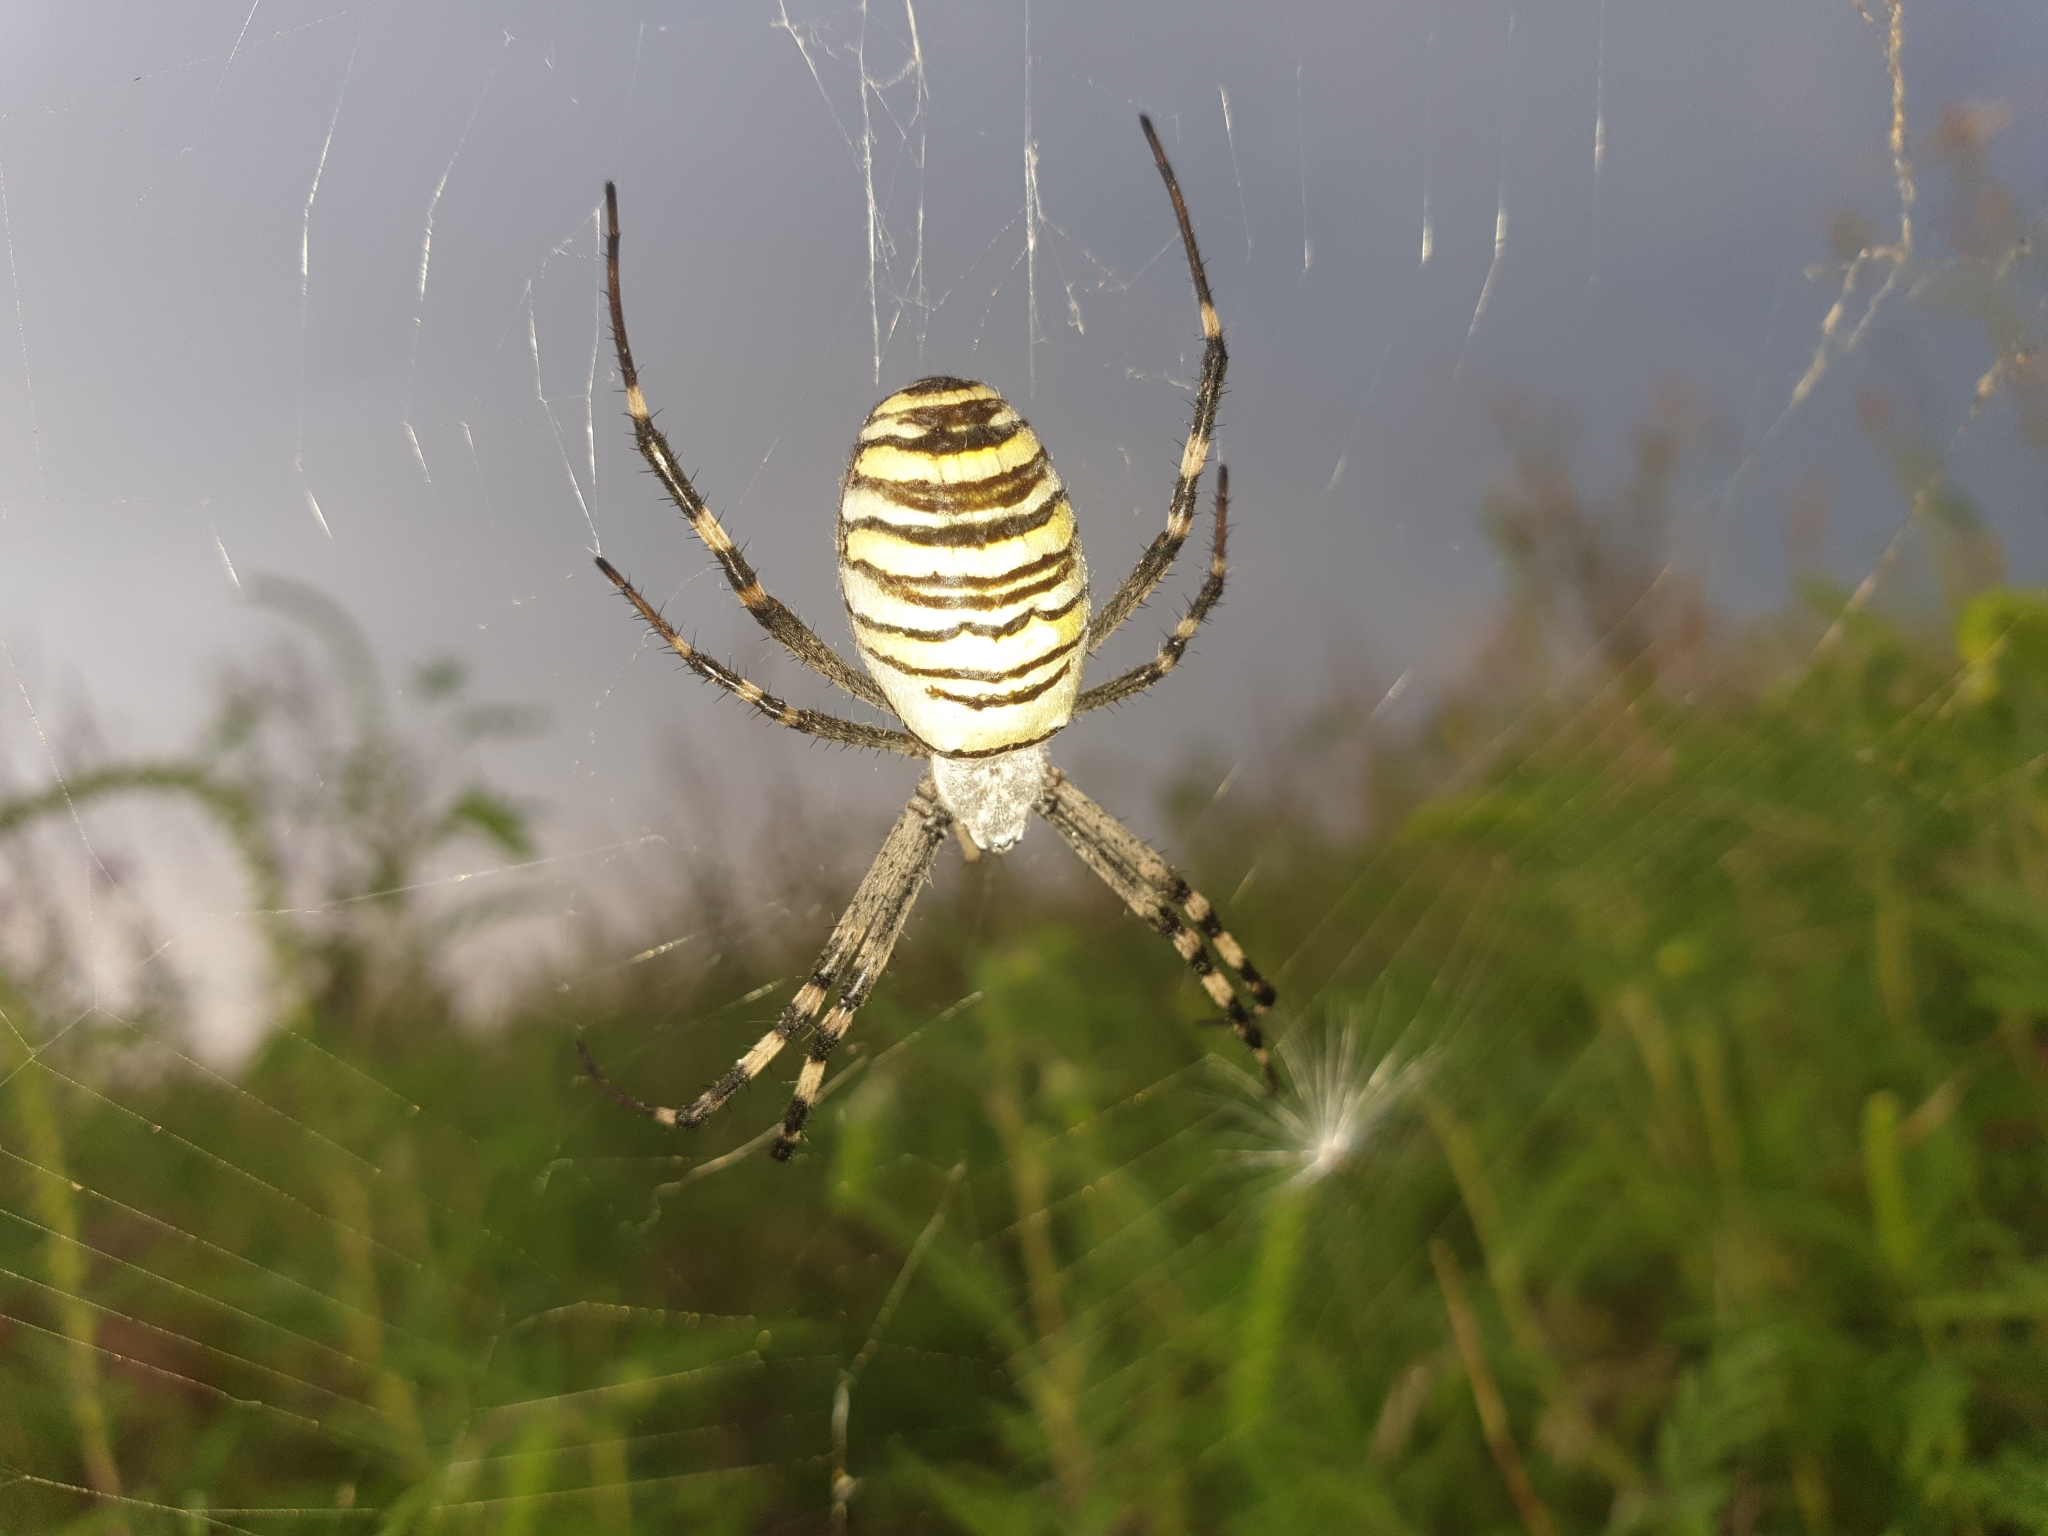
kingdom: Animalia
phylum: Arthropoda
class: Arachnida
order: Araneae
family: Araneidae
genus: Argiope
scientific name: Argiope bruennichi
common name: Wasp spider
